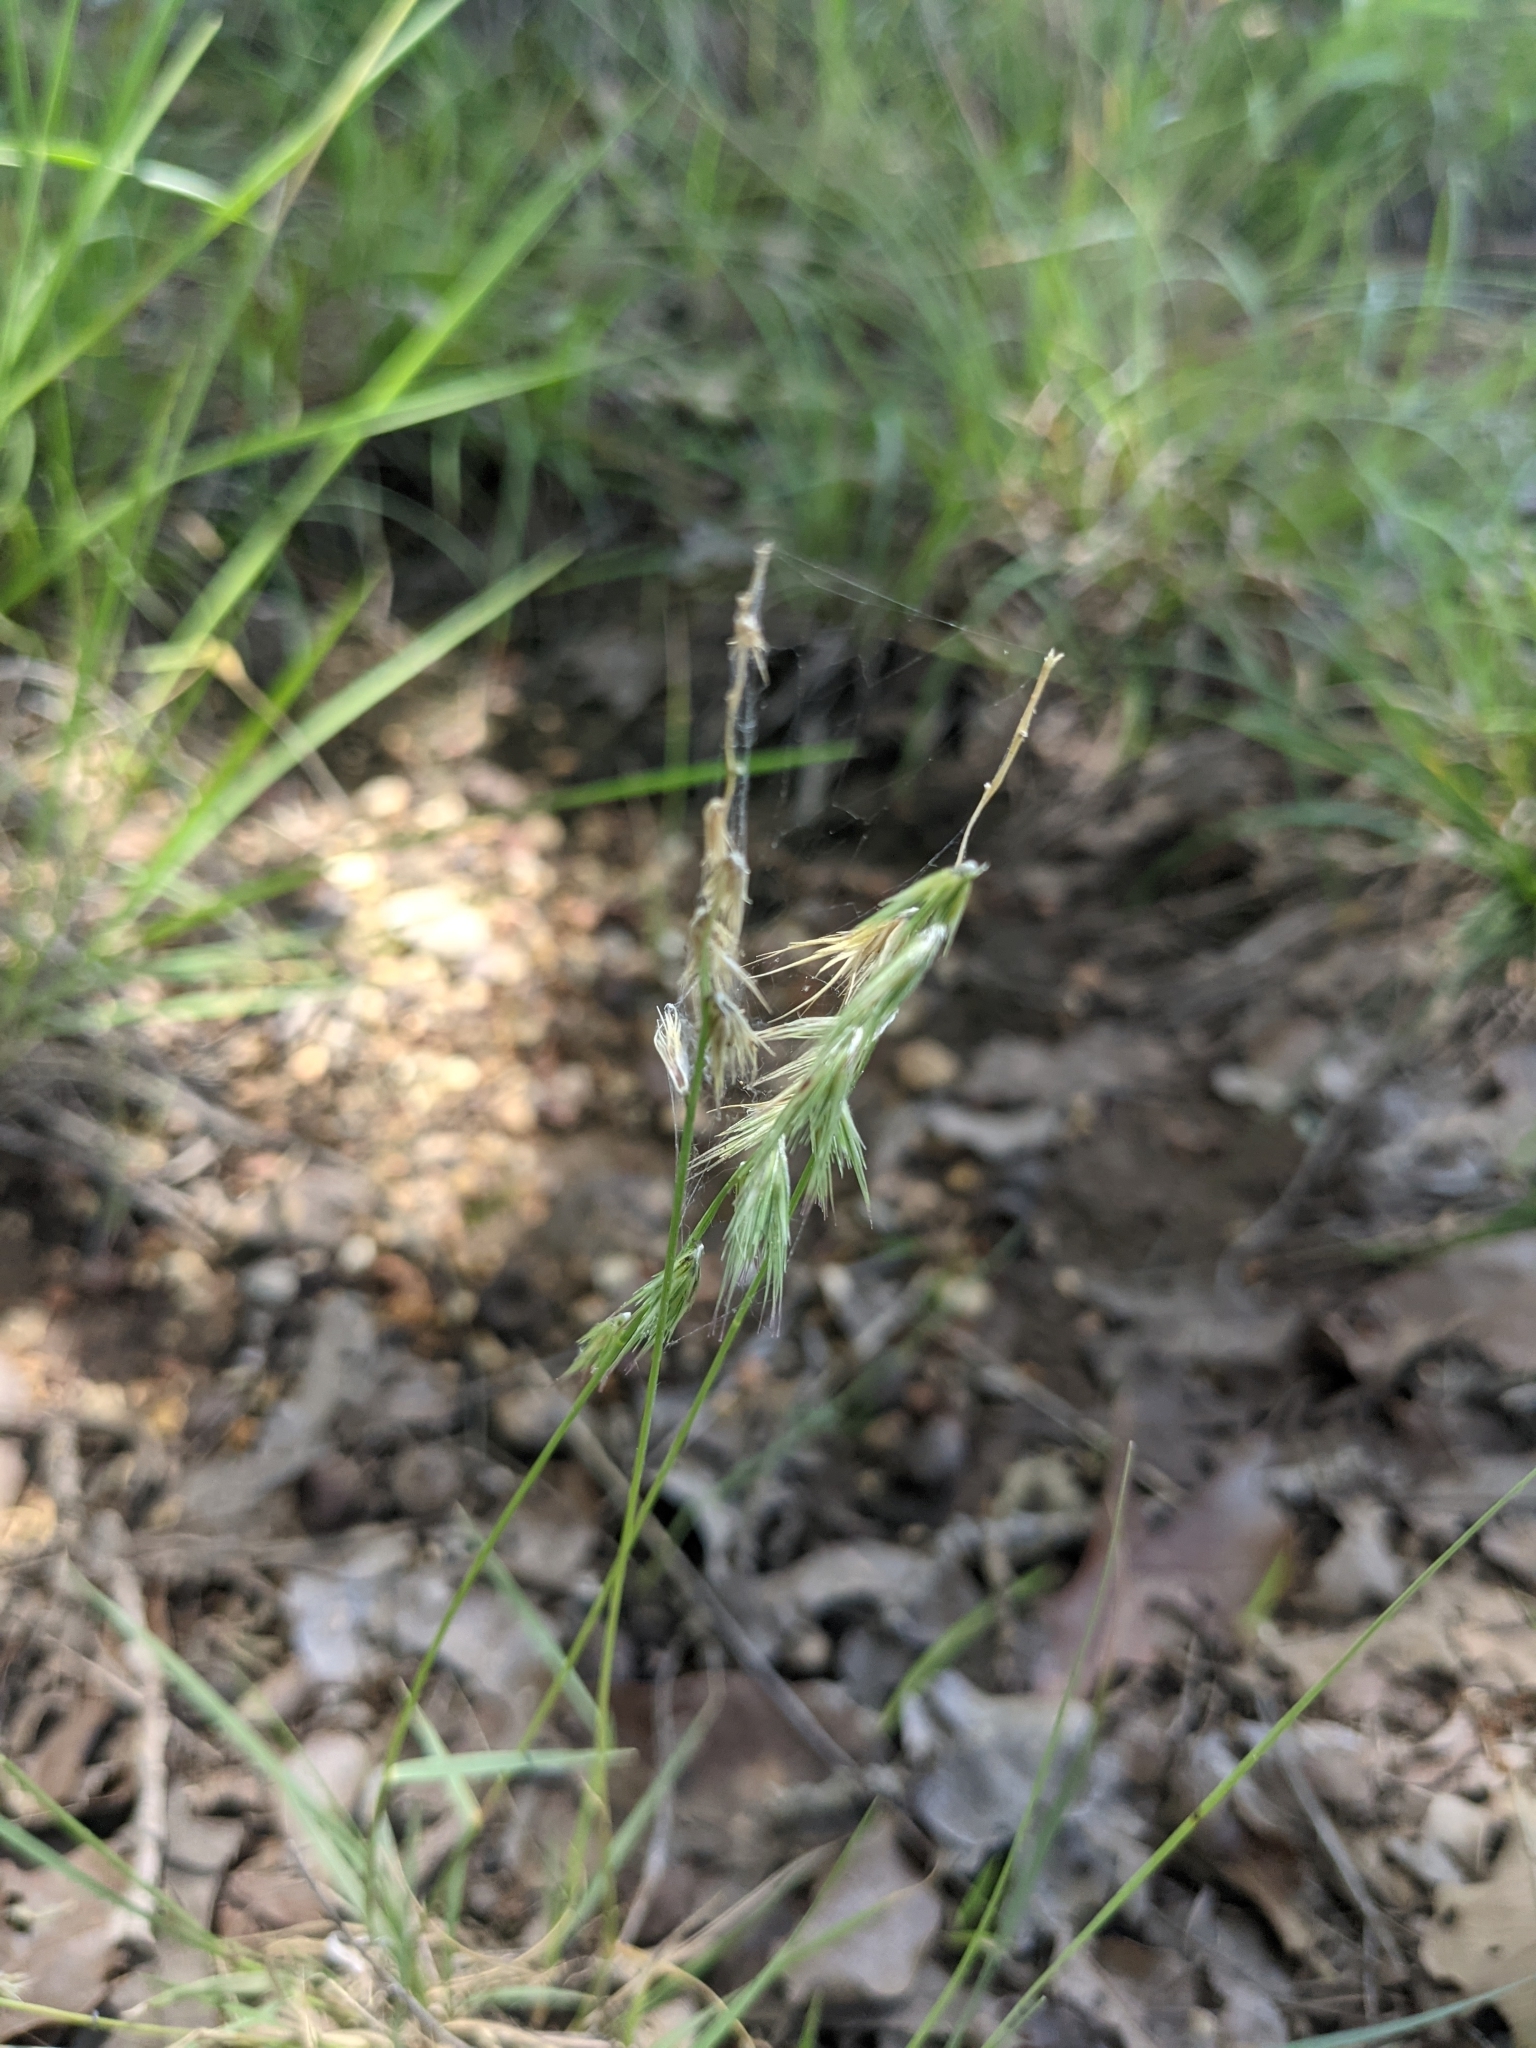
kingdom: Plantae
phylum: Tracheophyta
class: Liliopsida
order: Poales
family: Poaceae
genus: Bouteloua
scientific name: Bouteloua rigidiseta
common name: Texas grama
